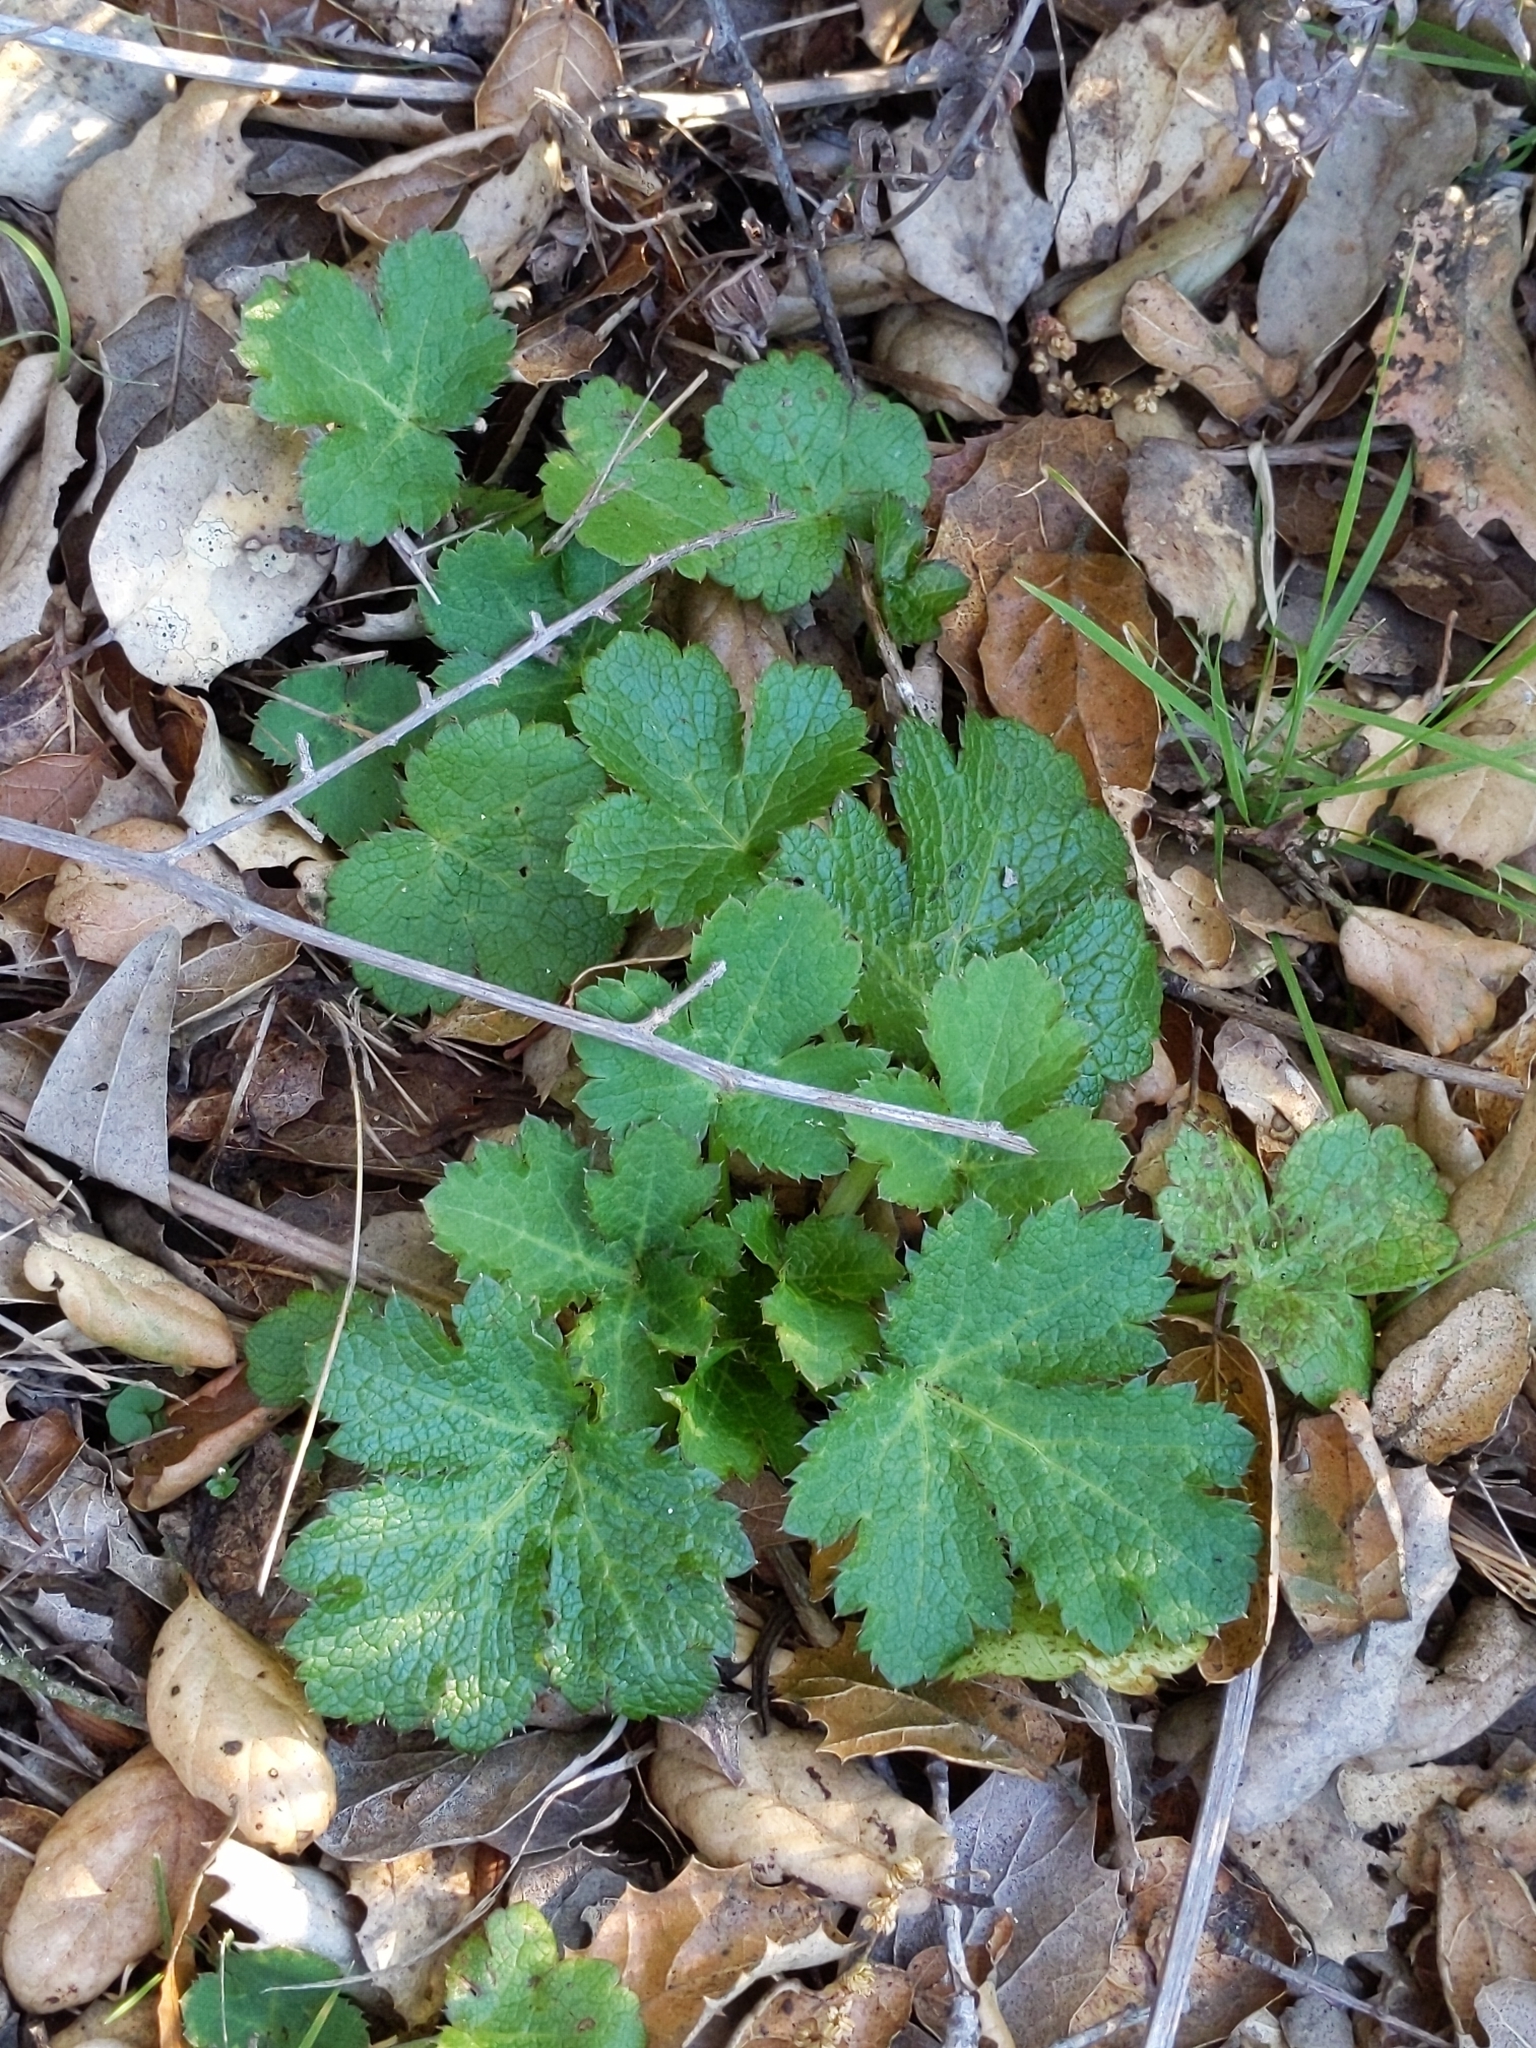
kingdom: Plantae
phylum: Tracheophyta
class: Magnoliopsida
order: Apiales
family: Apiaceae
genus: Sanicula
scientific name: Sanicula crassicaulis
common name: Western snakeroot
